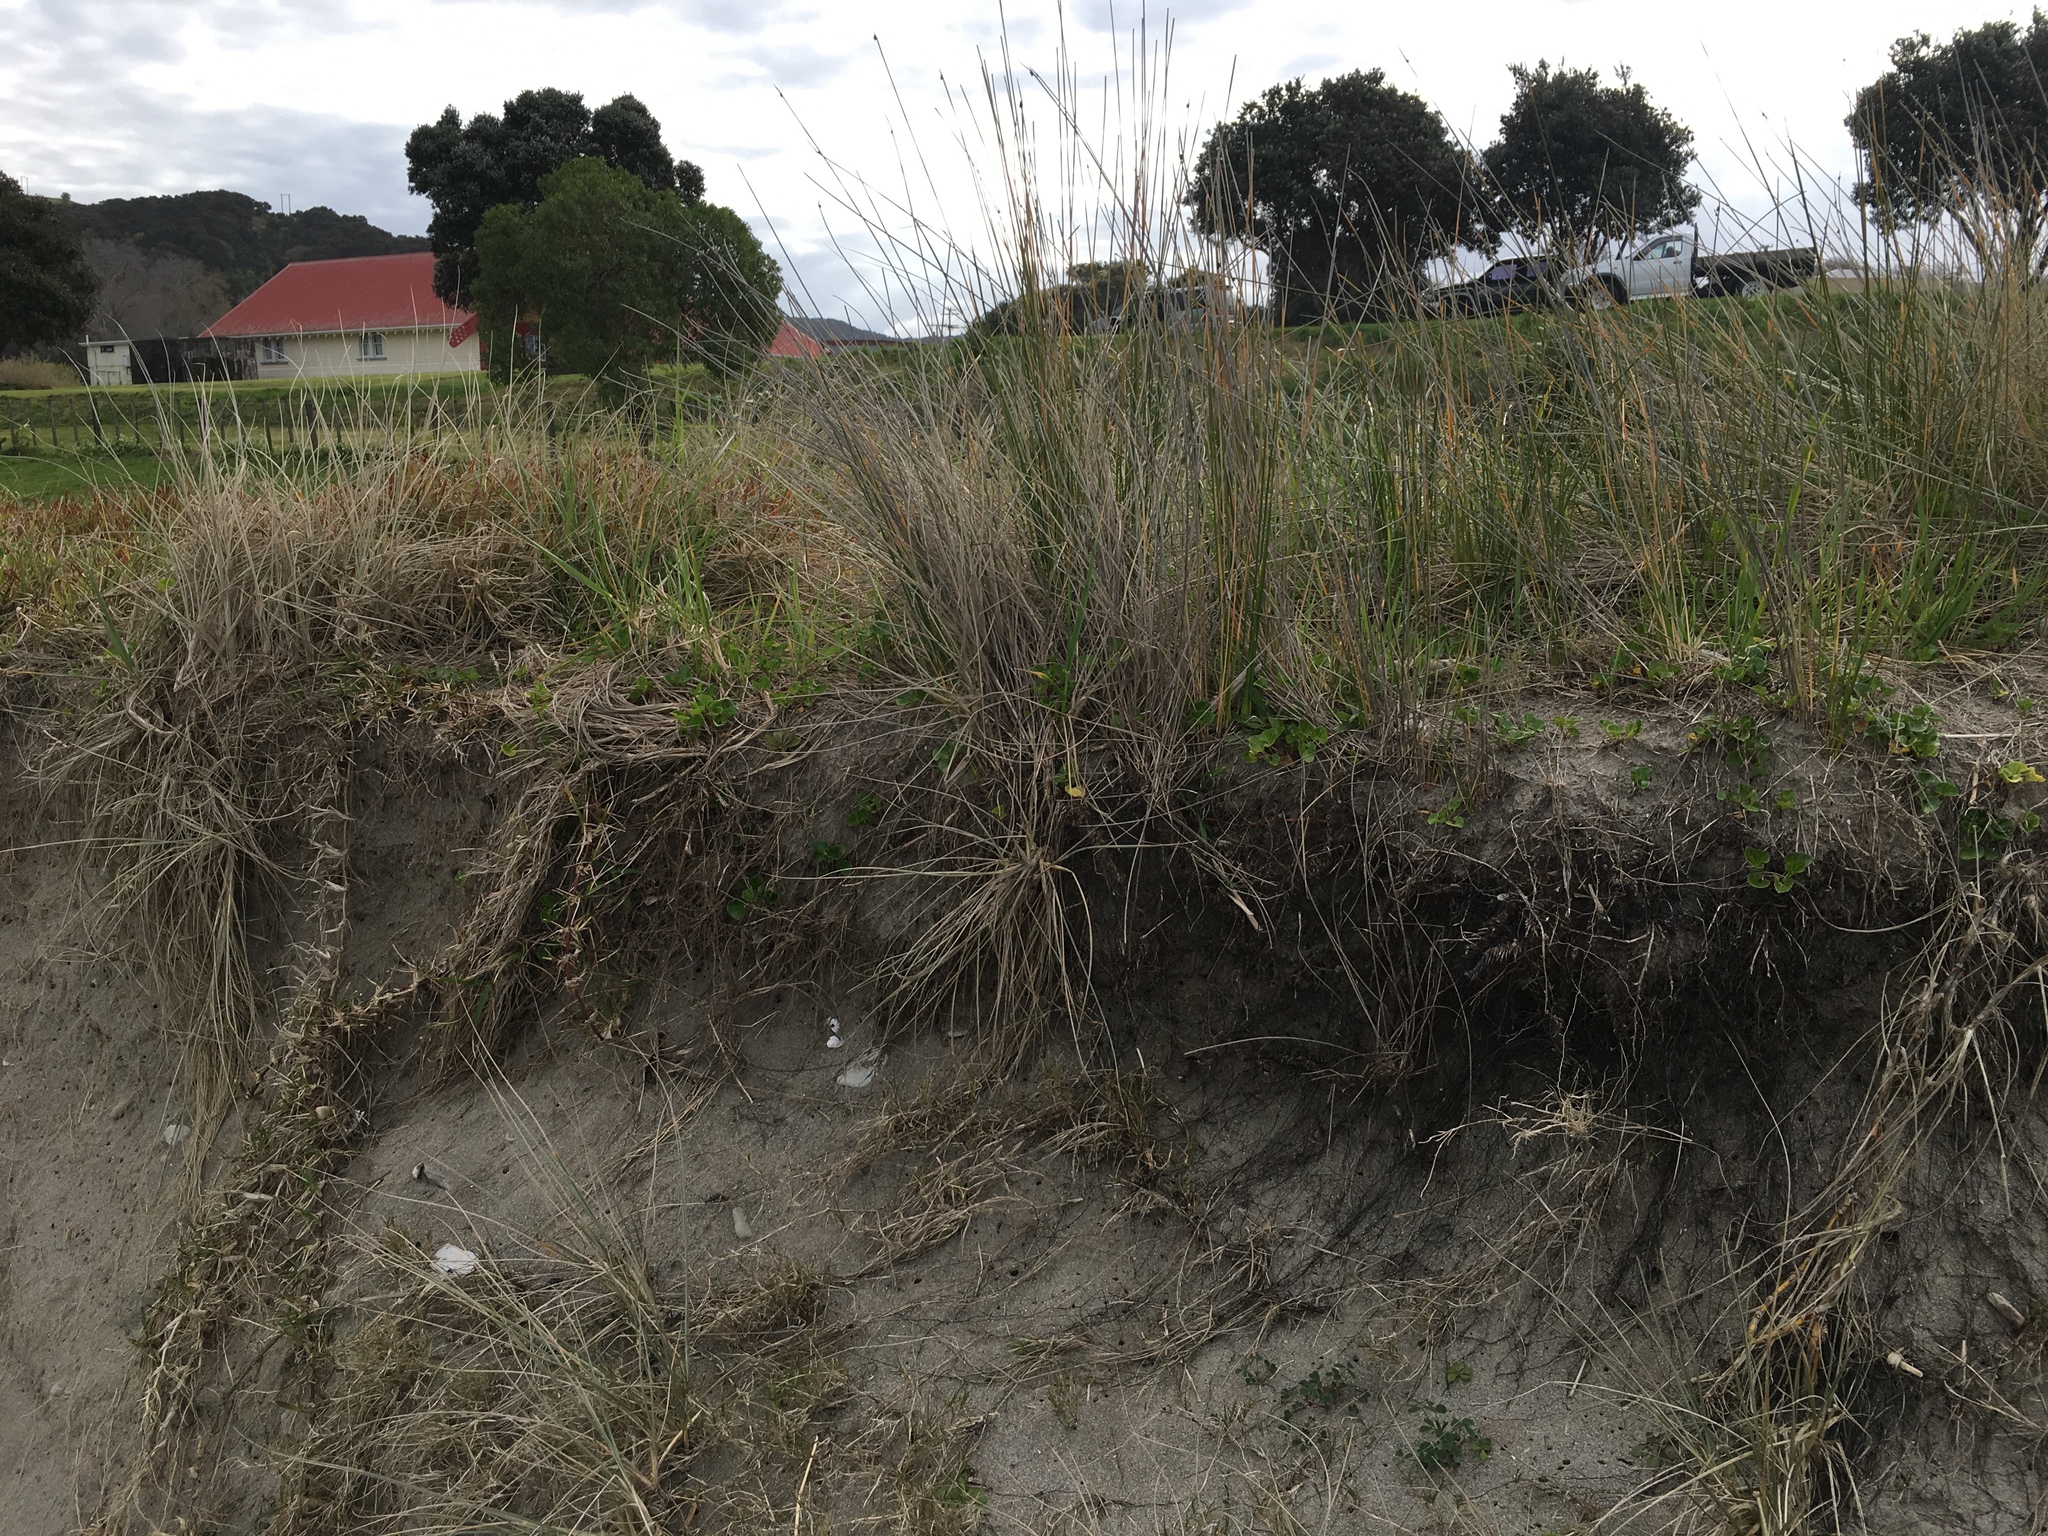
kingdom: Plantae
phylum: Tracheophyta
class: Liliopsida
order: Poales
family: Cyperaceae
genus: Ficinia
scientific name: Ficinia nodosa
